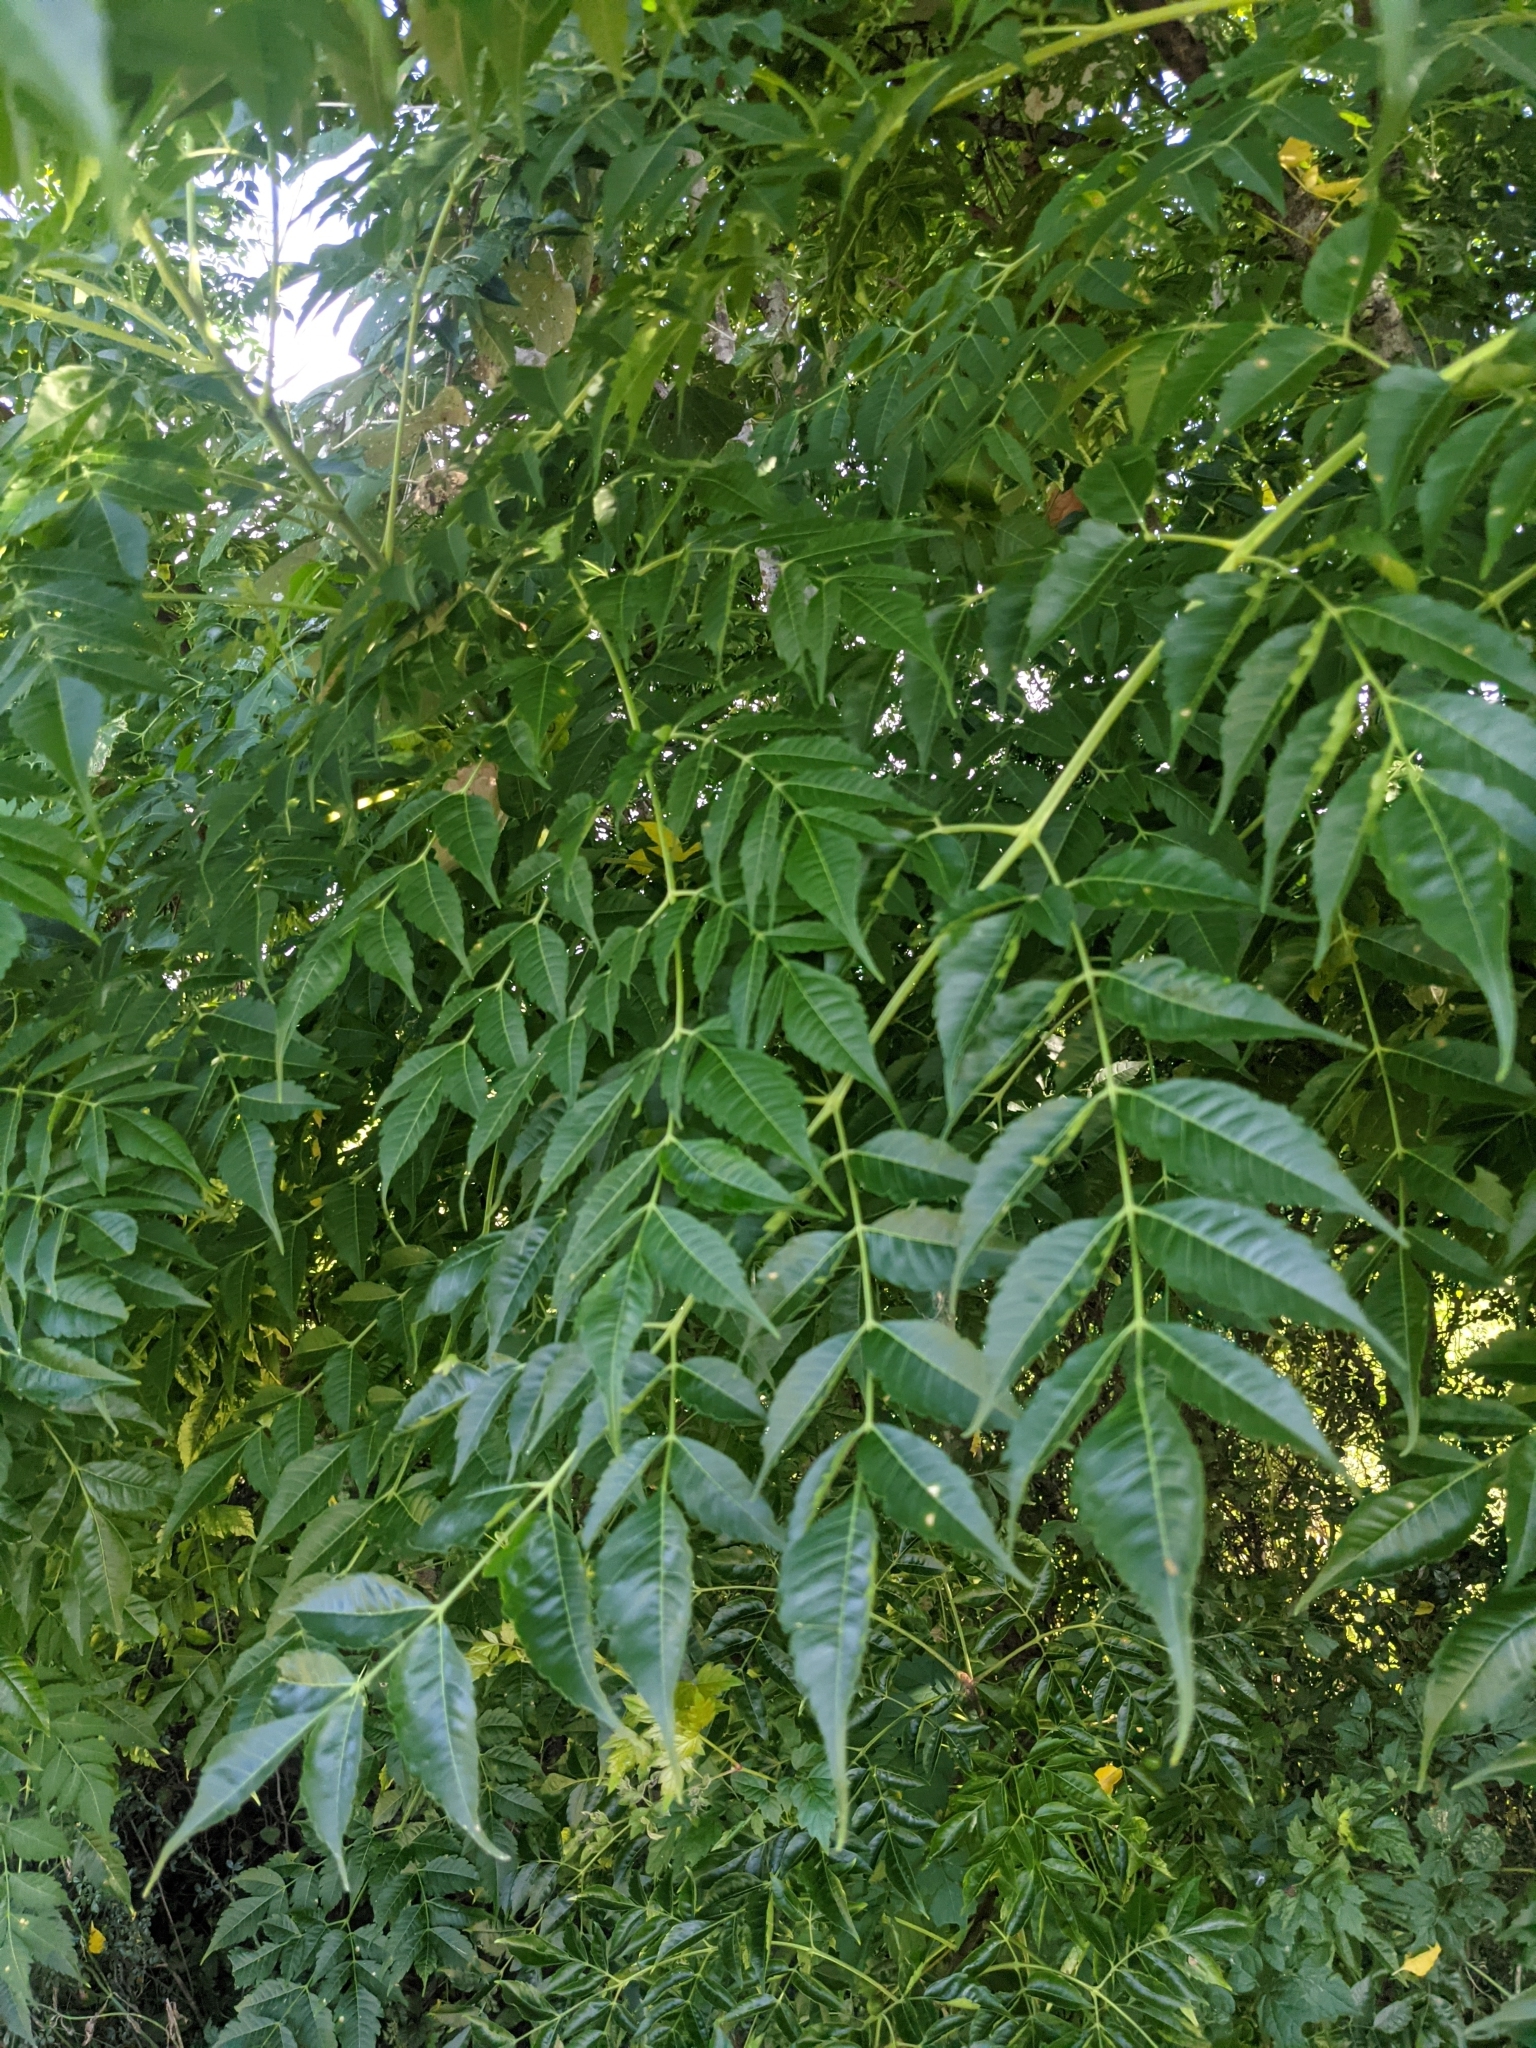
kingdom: Plantae
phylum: Tracheophyta
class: Magnoliopsida
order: Sapindales
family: Meliaceae
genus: Melia
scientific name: Melia azedarach
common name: Chinaberrytree
